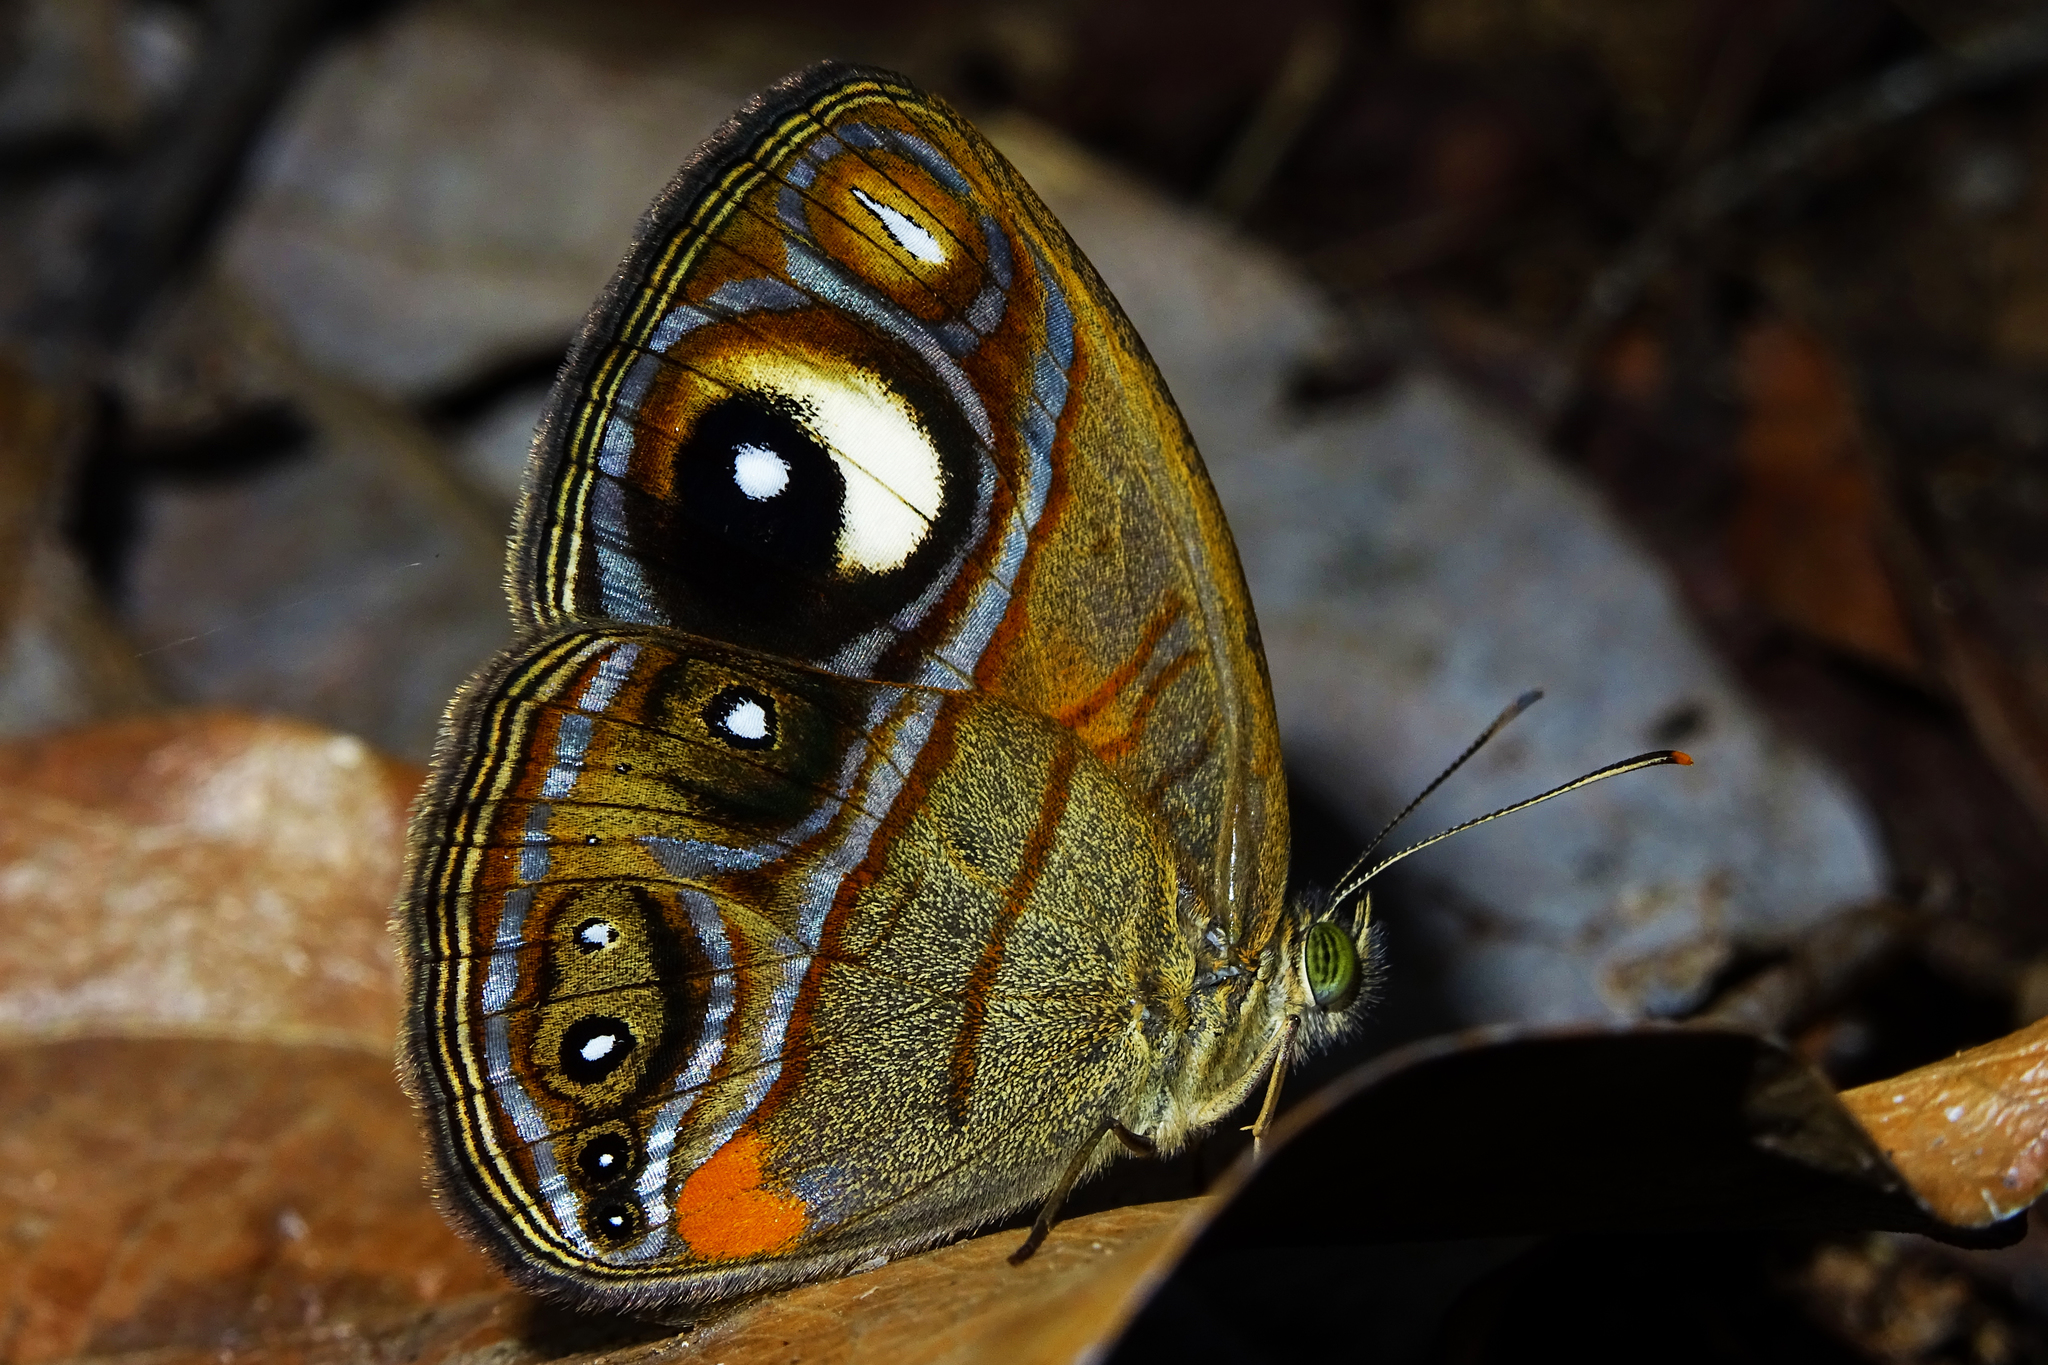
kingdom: Animalia
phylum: Arthropoda
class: Insecta
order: Lepidoptera
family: Nymphalidae
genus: Mycalesis
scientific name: Mycalesis patnia
